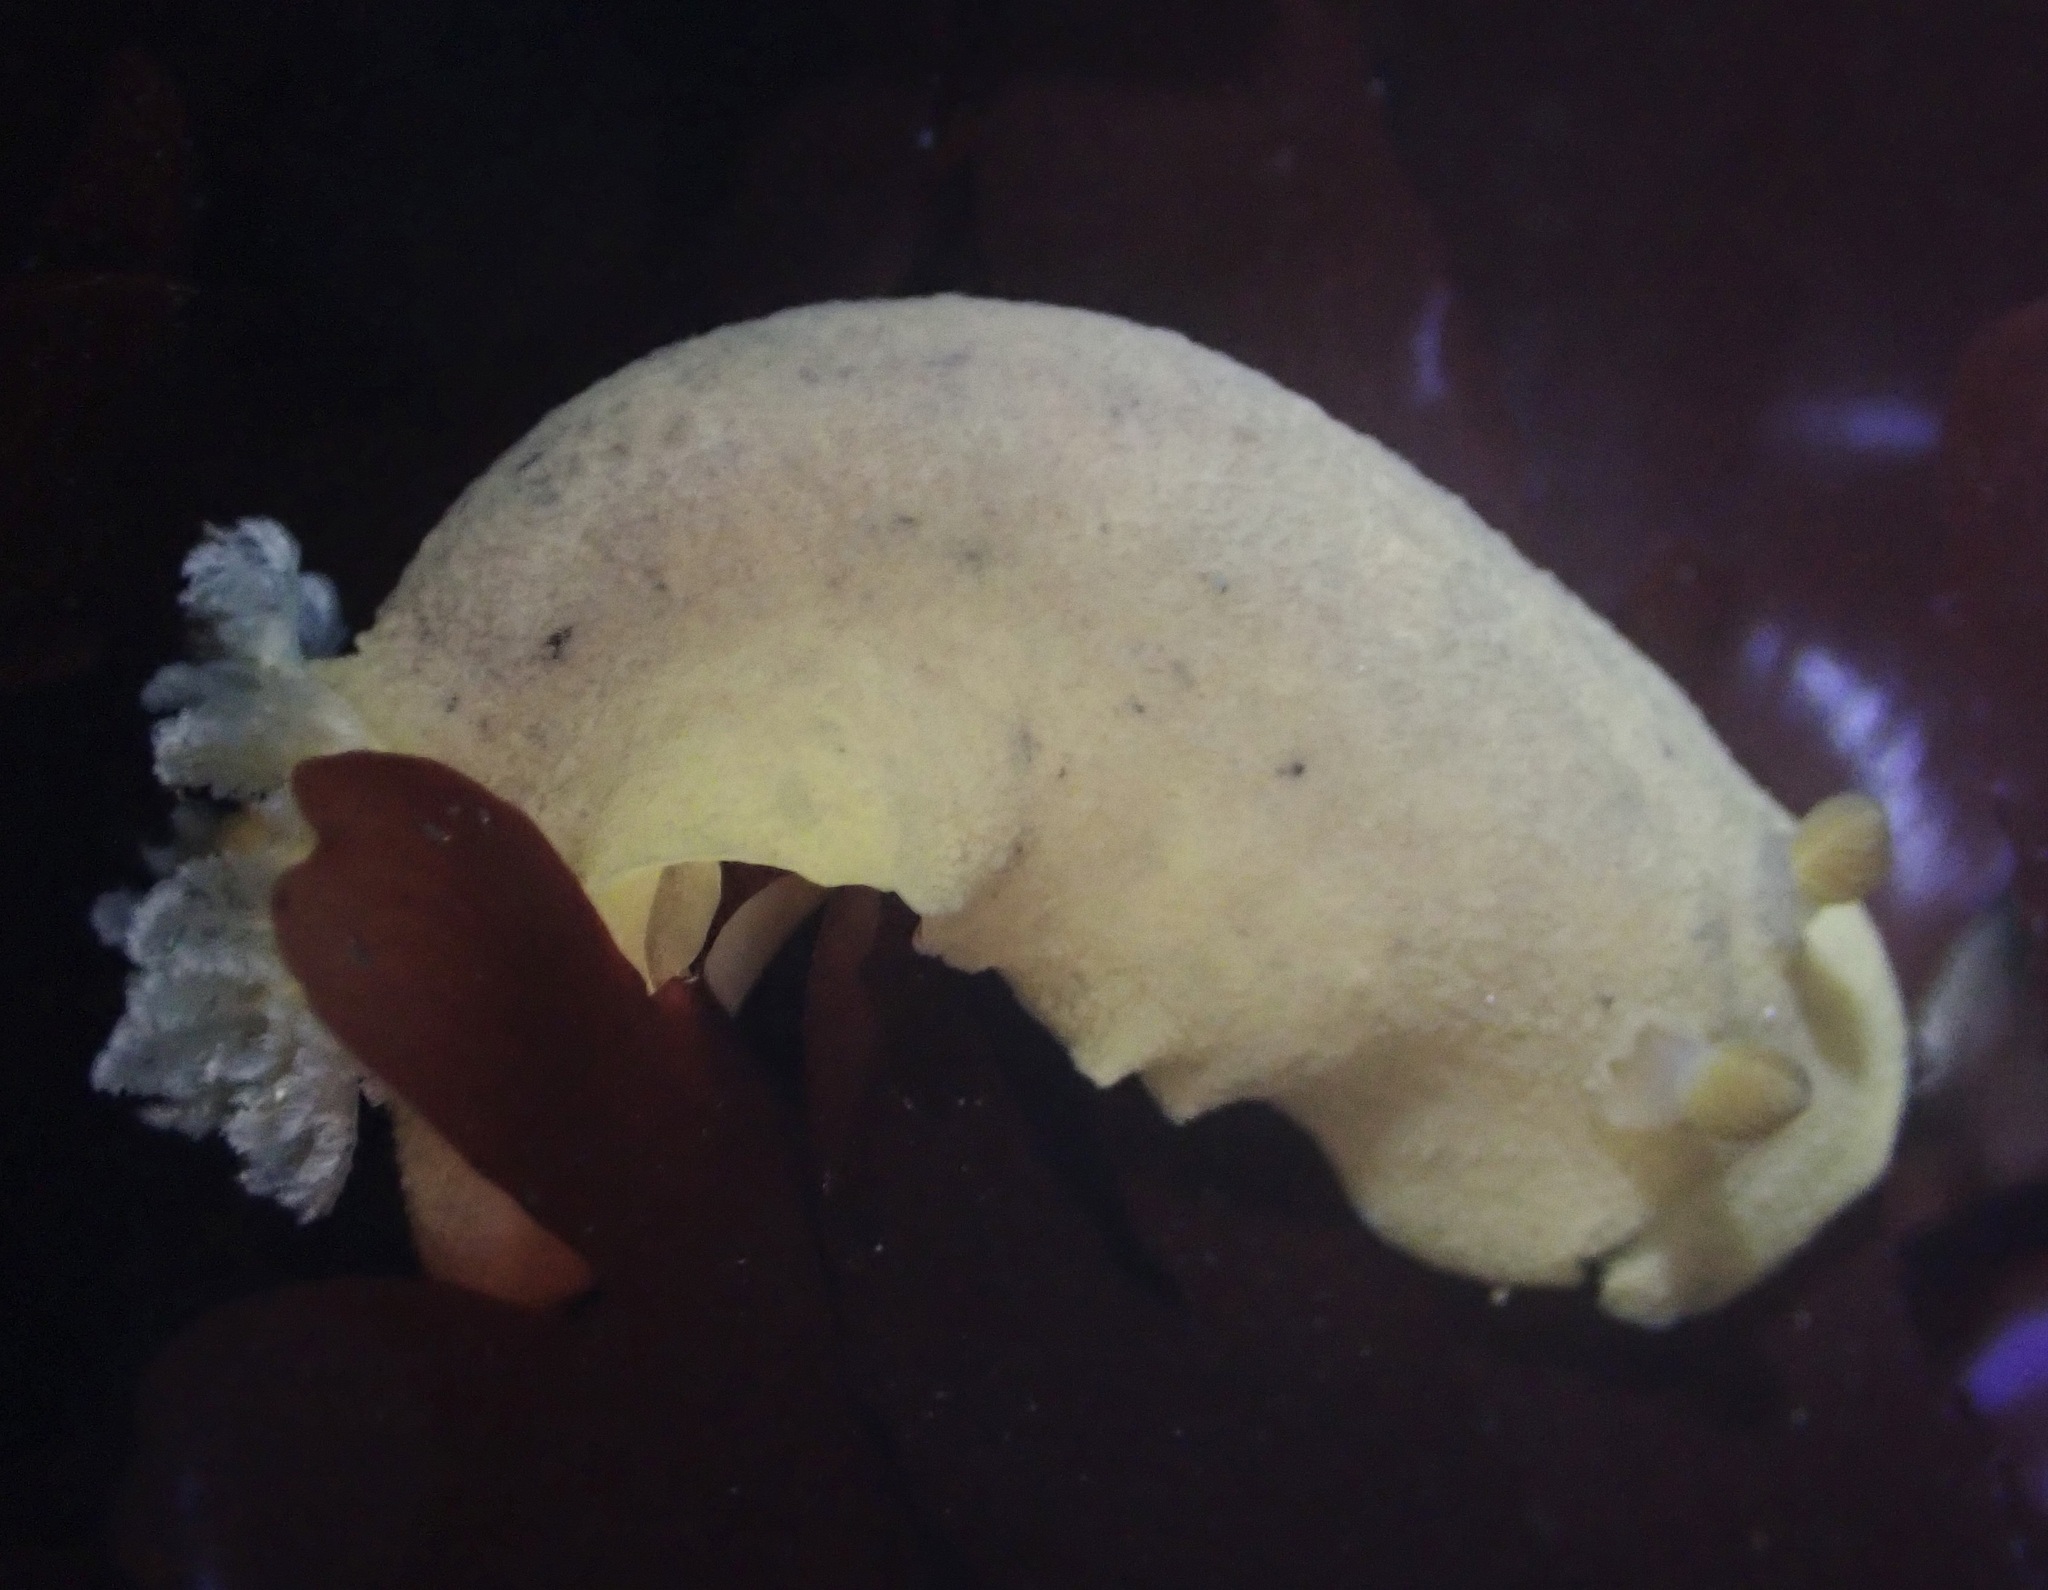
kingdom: Animalia
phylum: Mollusca
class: Gastropoda
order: Nudibranchia
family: Discodorididae
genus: Geitodoris
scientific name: Geitodoris heathi
